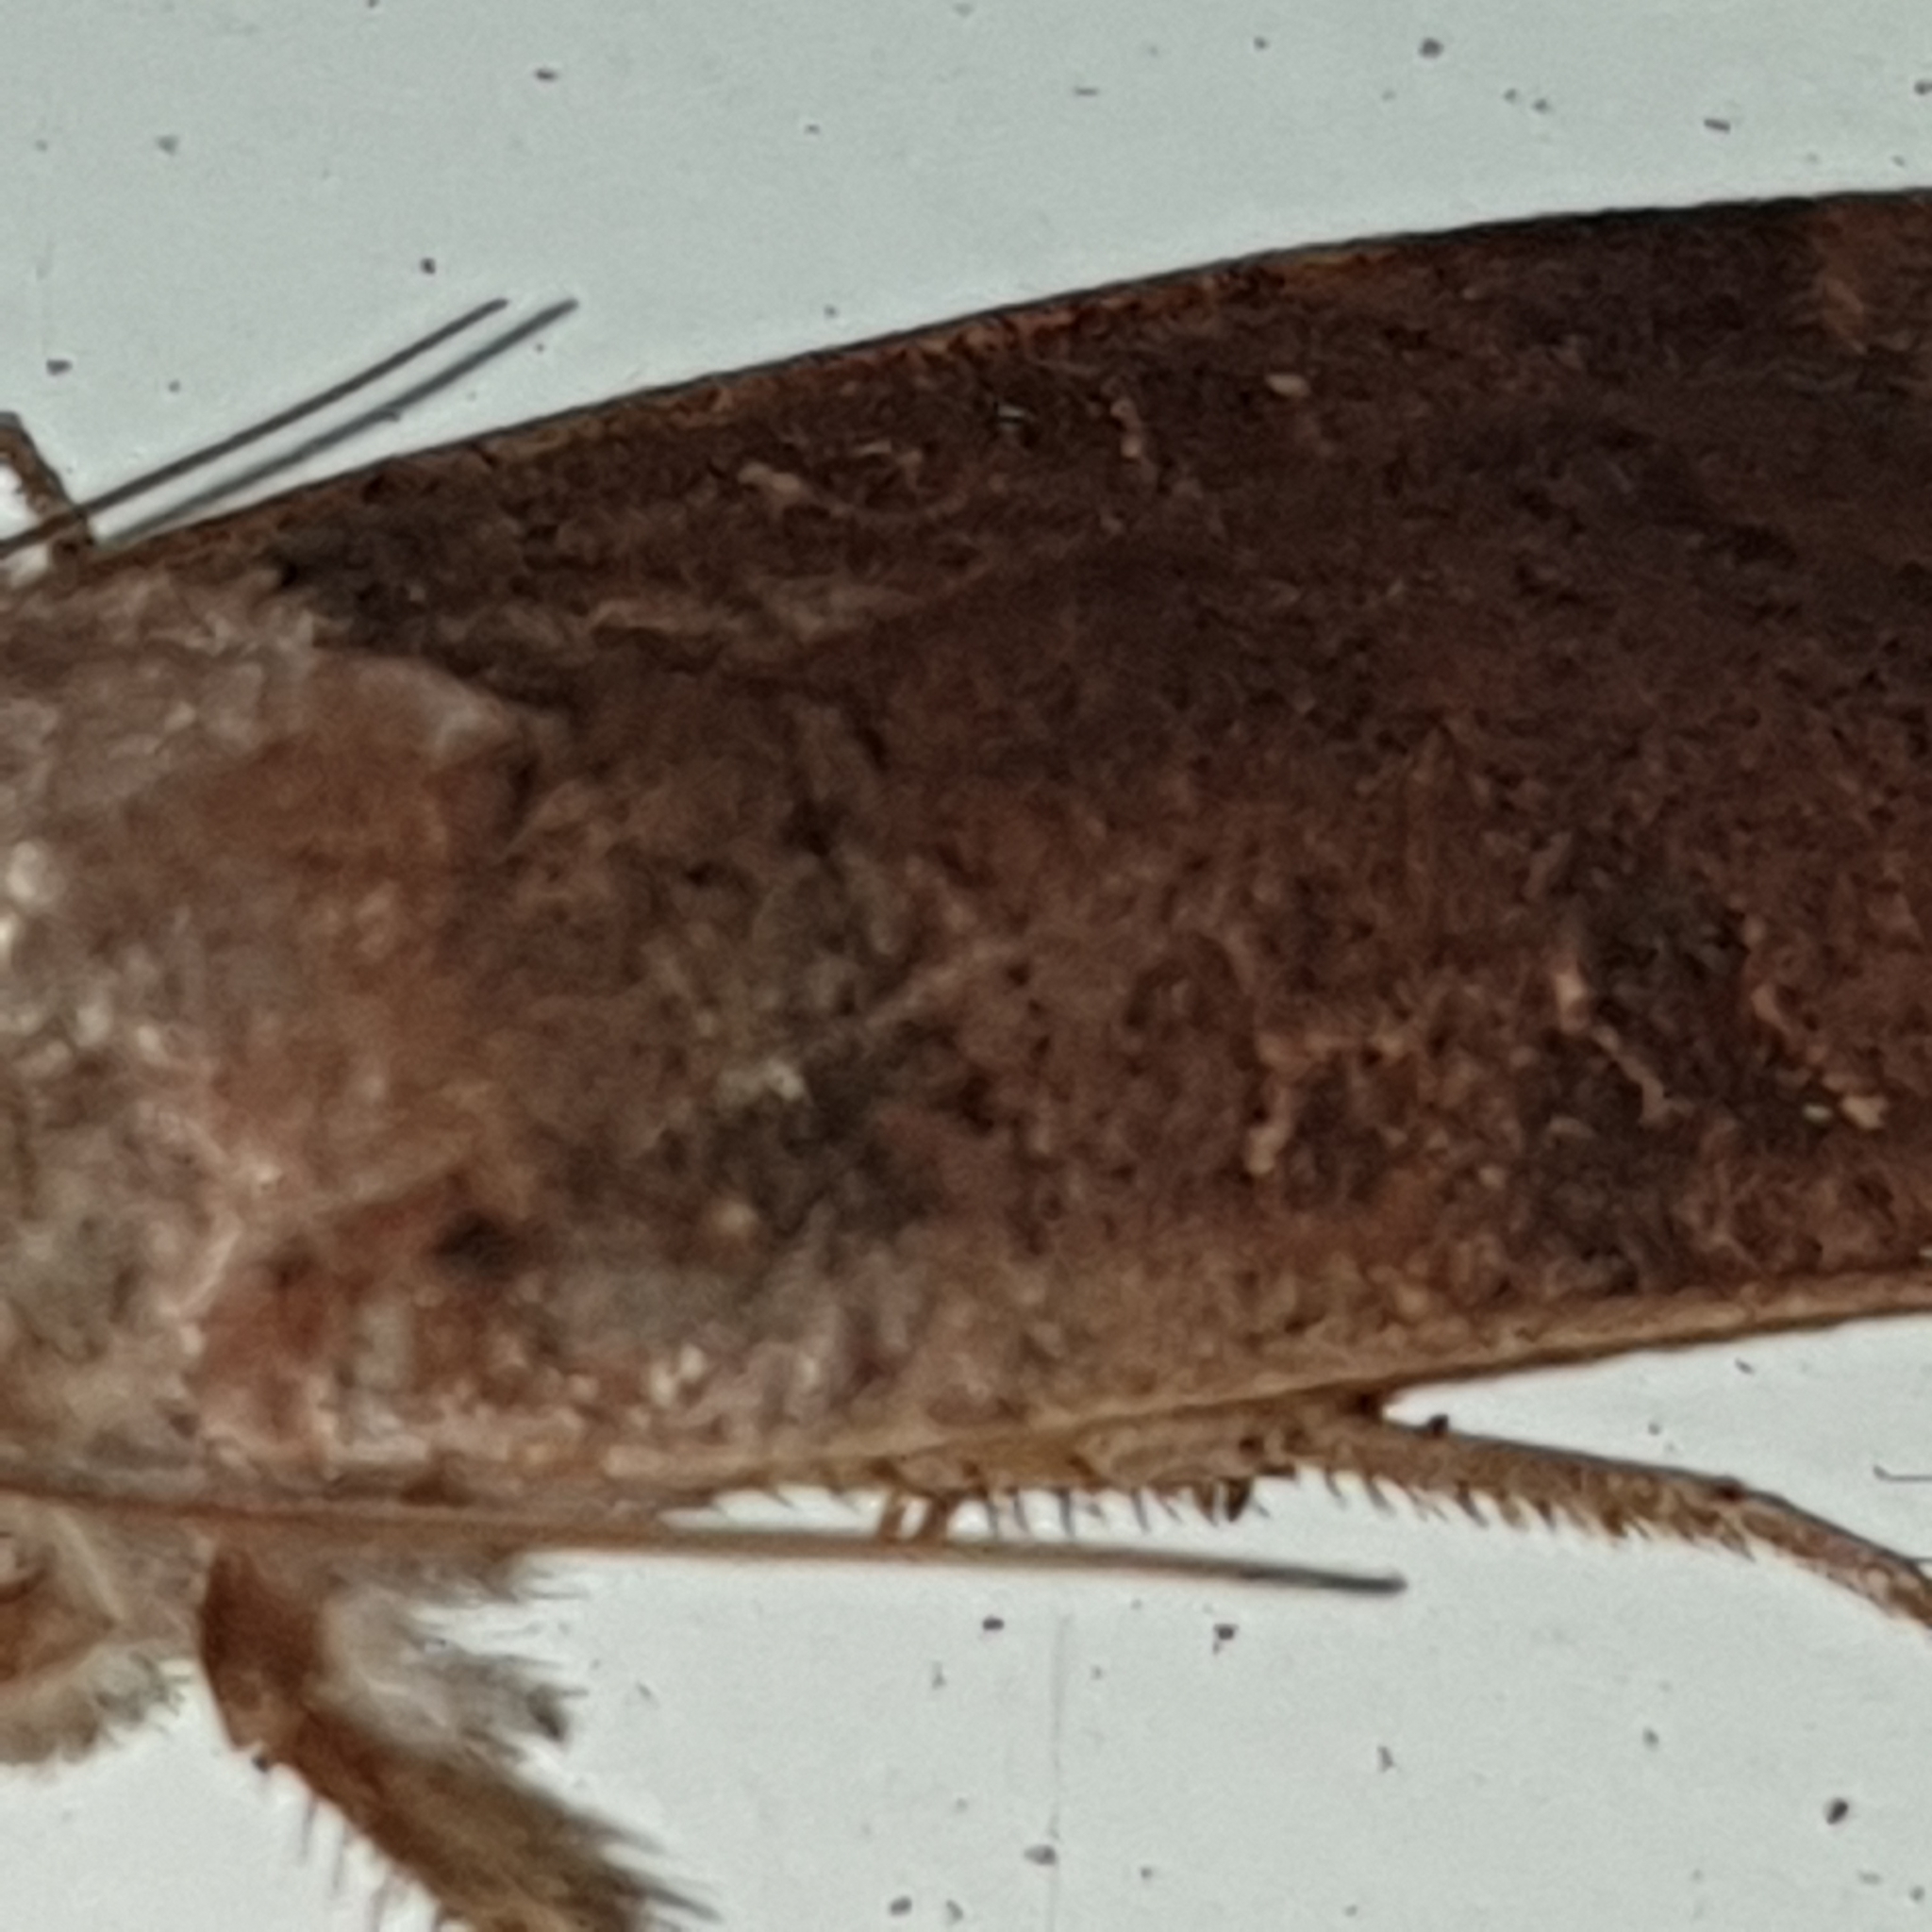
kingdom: Animalia
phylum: Arthropoda
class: Insecta
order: Lepidoptera
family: Noctuidae
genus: Noctua
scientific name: Noctua comes
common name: Lesser yellow underwing
